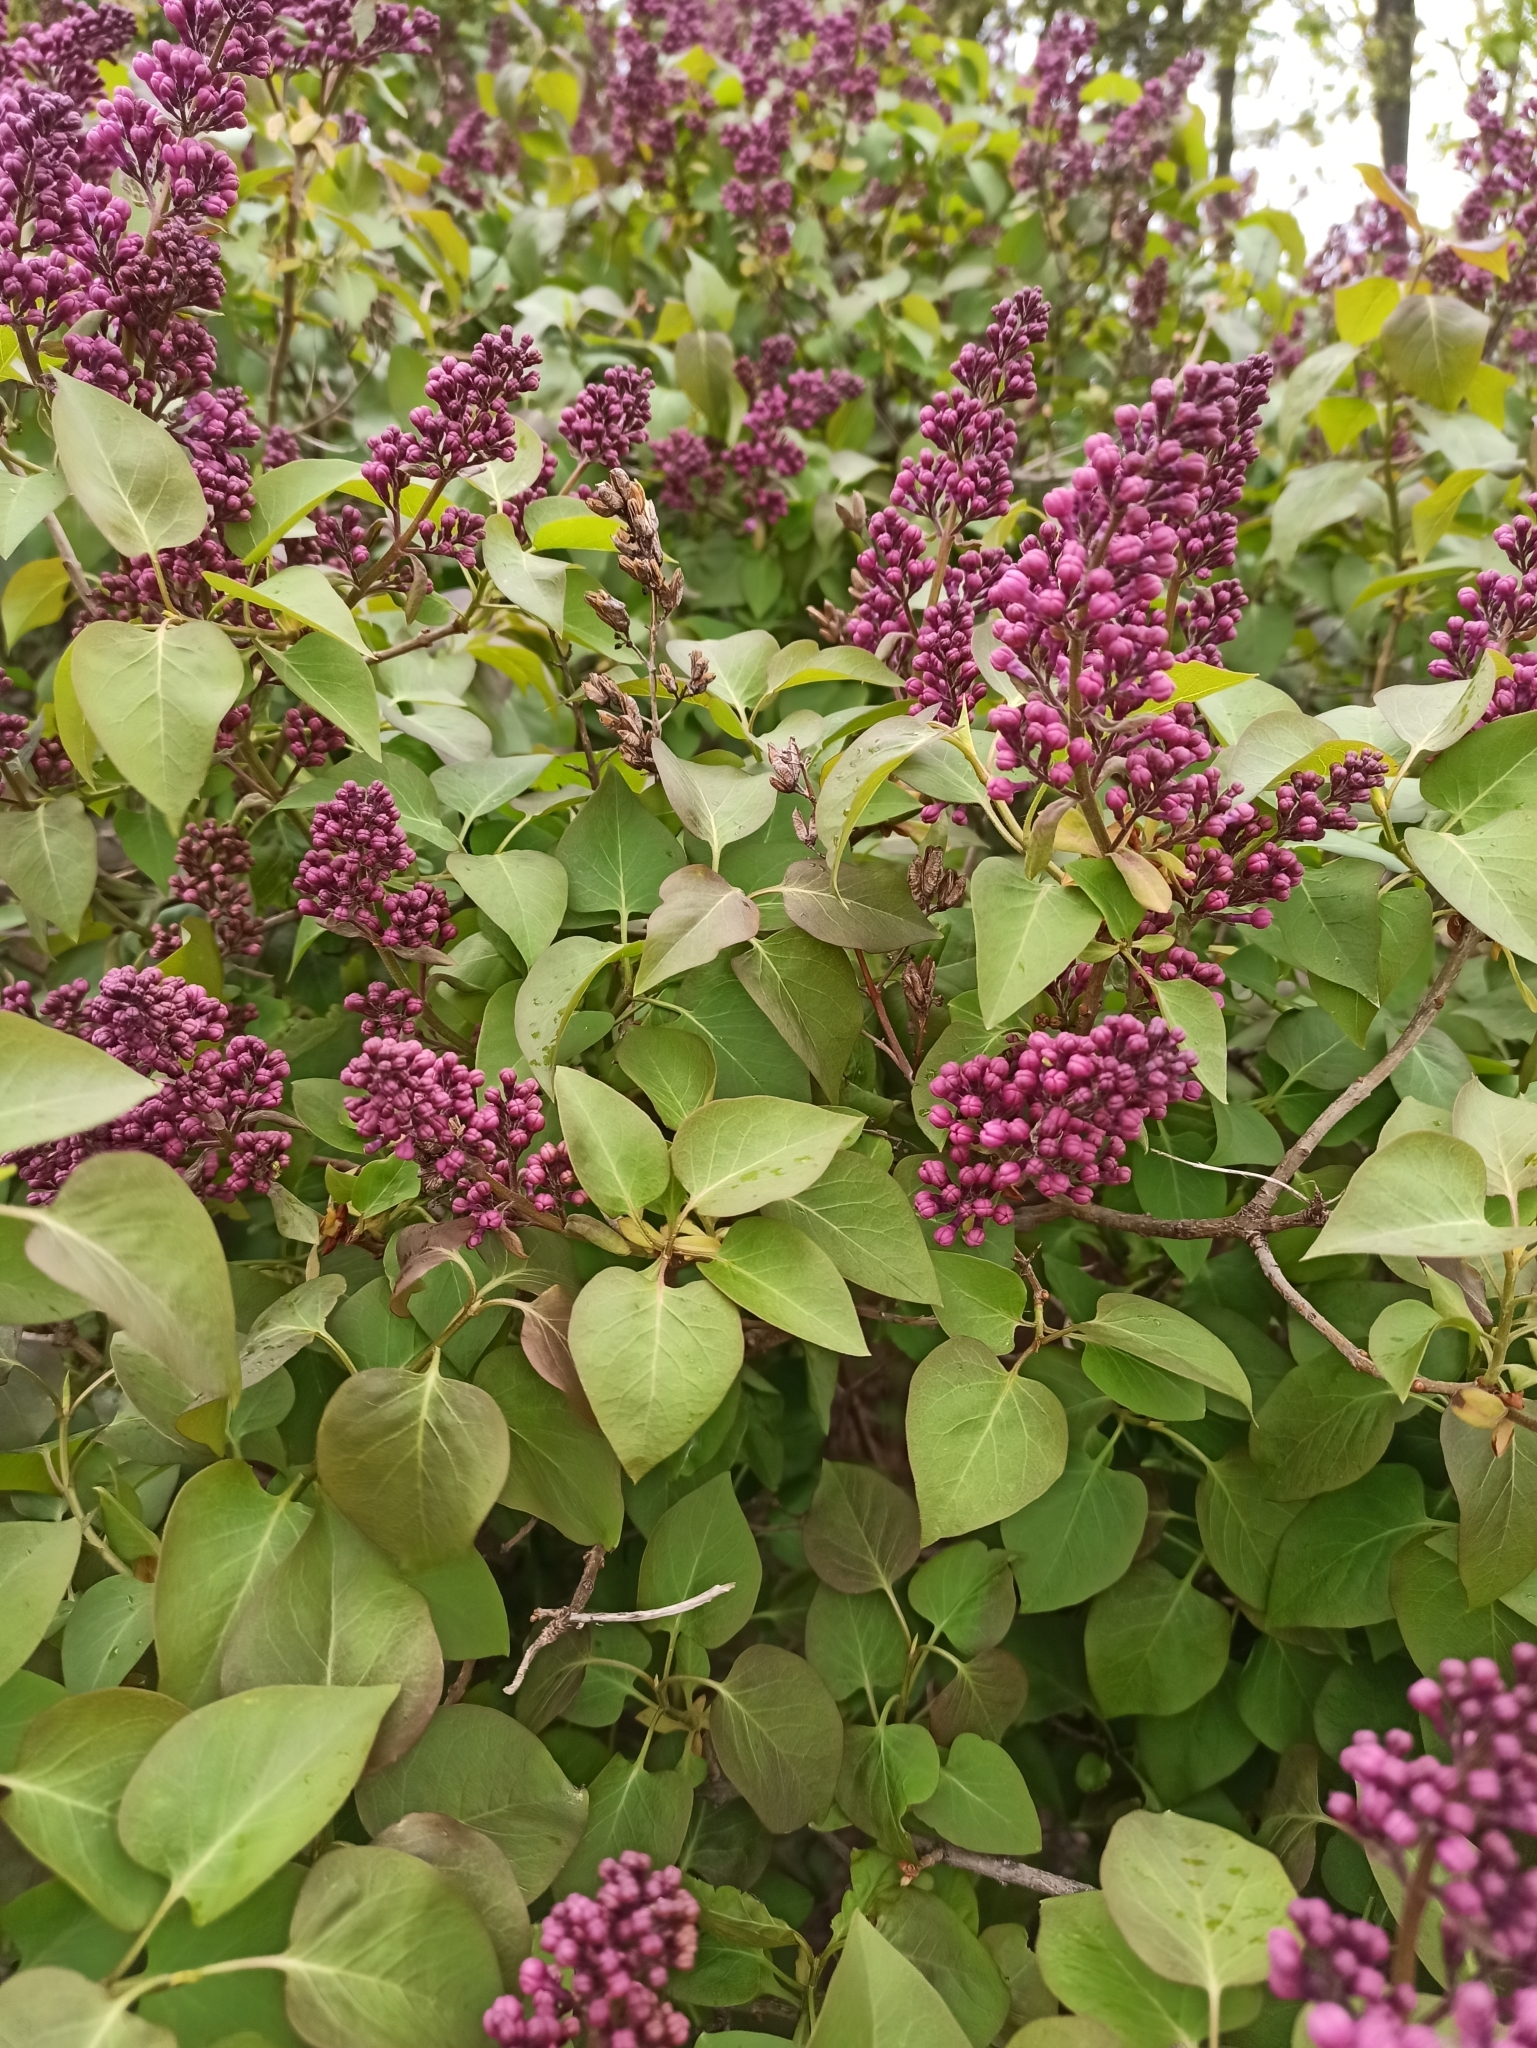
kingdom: Plantae
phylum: Tracheophyta
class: Magnoliopsida
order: Lamiales
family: Oleaceae
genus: Syringa
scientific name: Syringa vulgaris
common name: Common lilac
